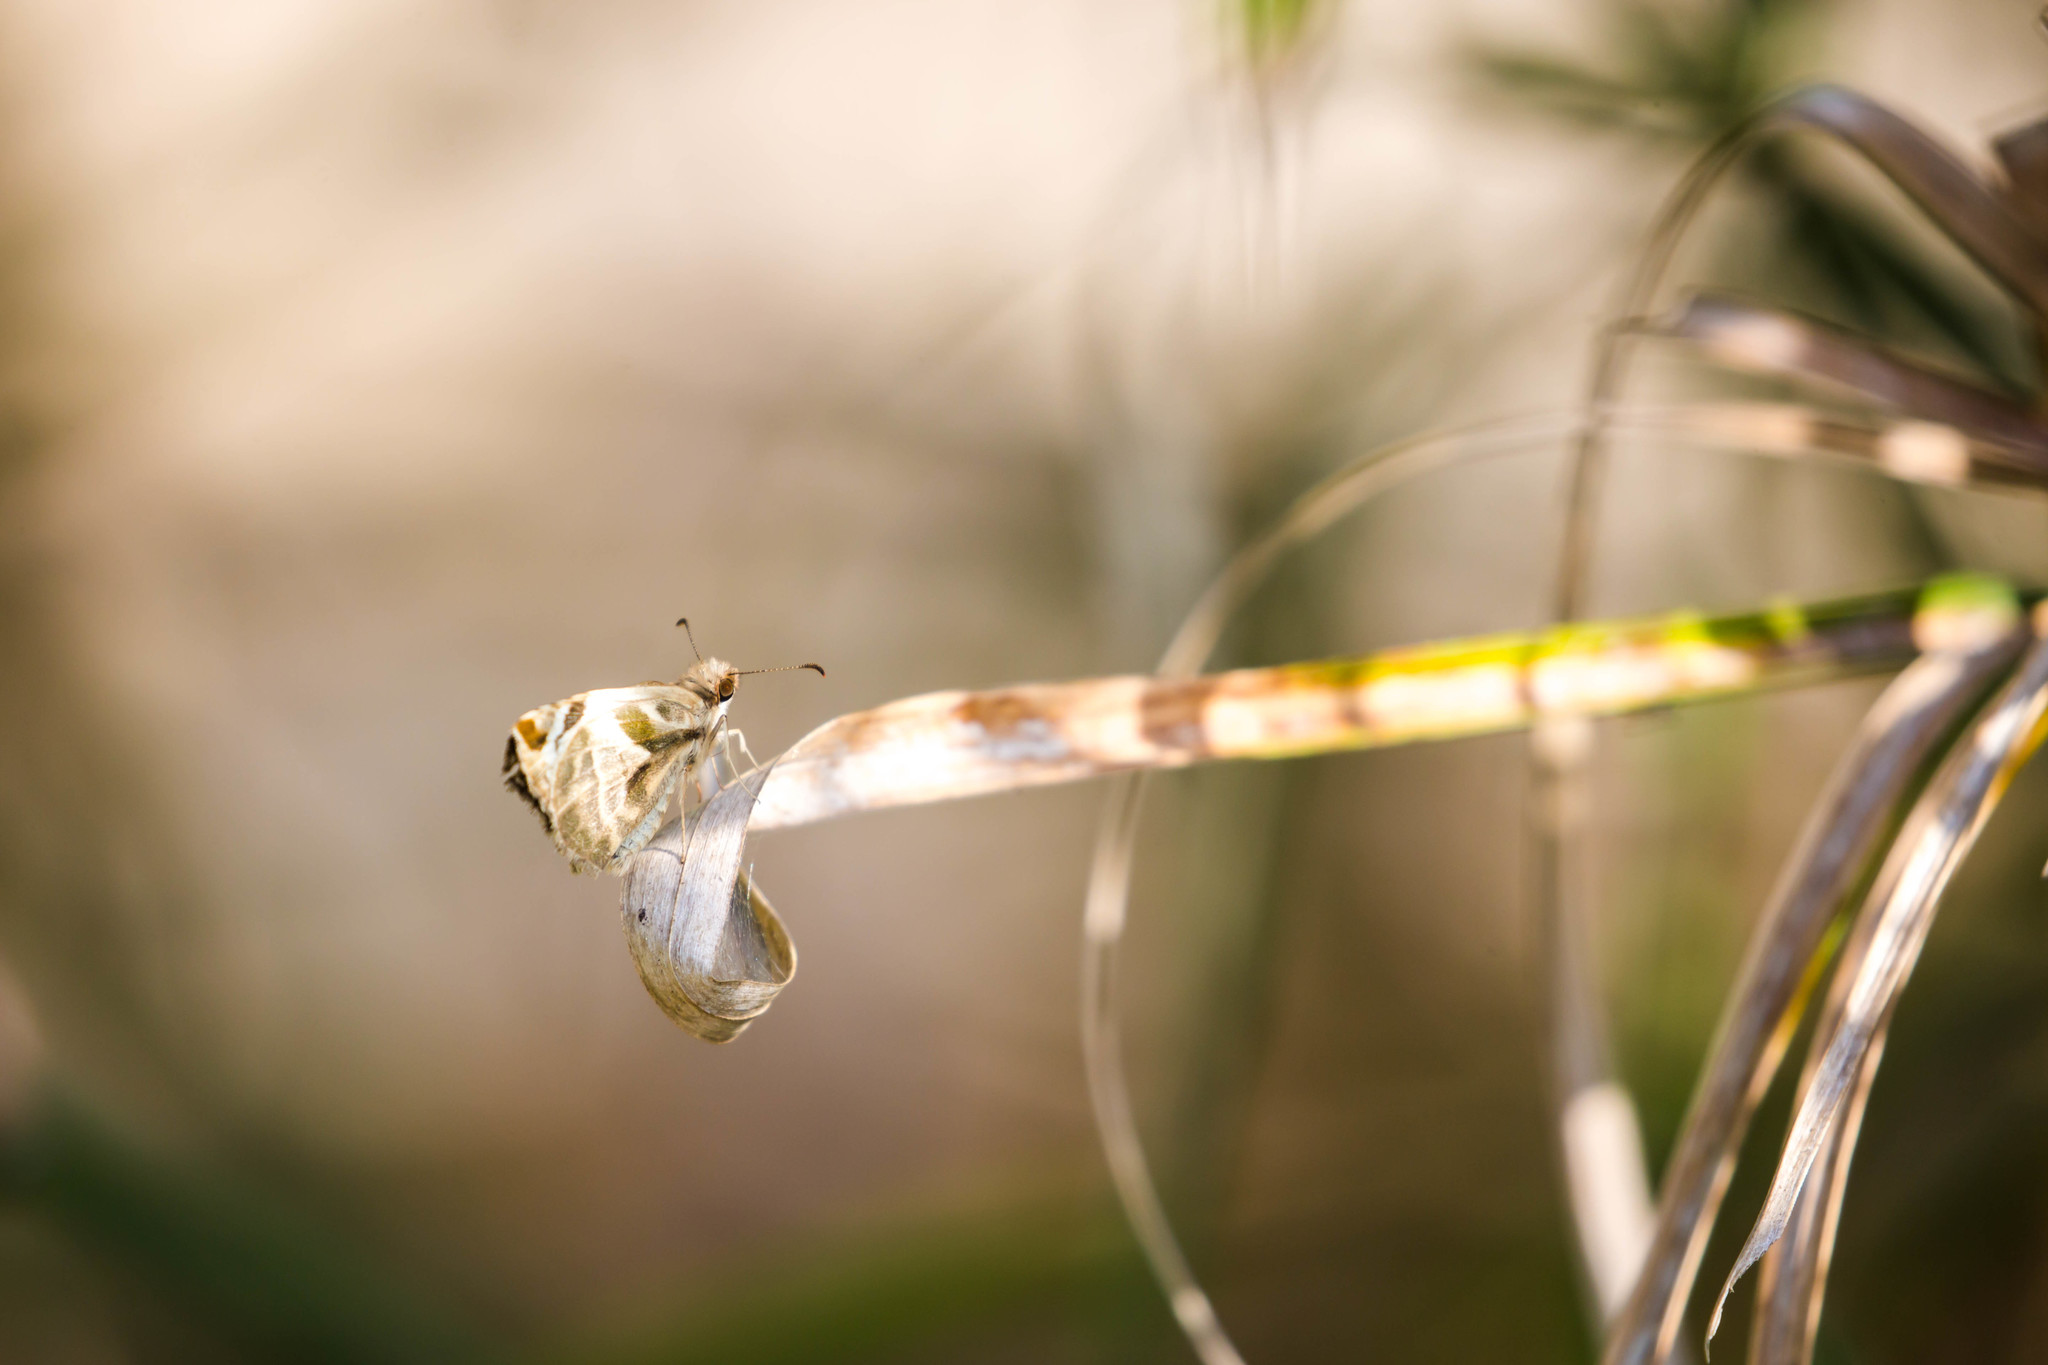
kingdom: Animalia
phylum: Arthropoda
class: Insecta
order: Lepidoptera
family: Hesperiidae
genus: Heliopetes
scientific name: Heliopetes laviana
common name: Laviana white-skipper
